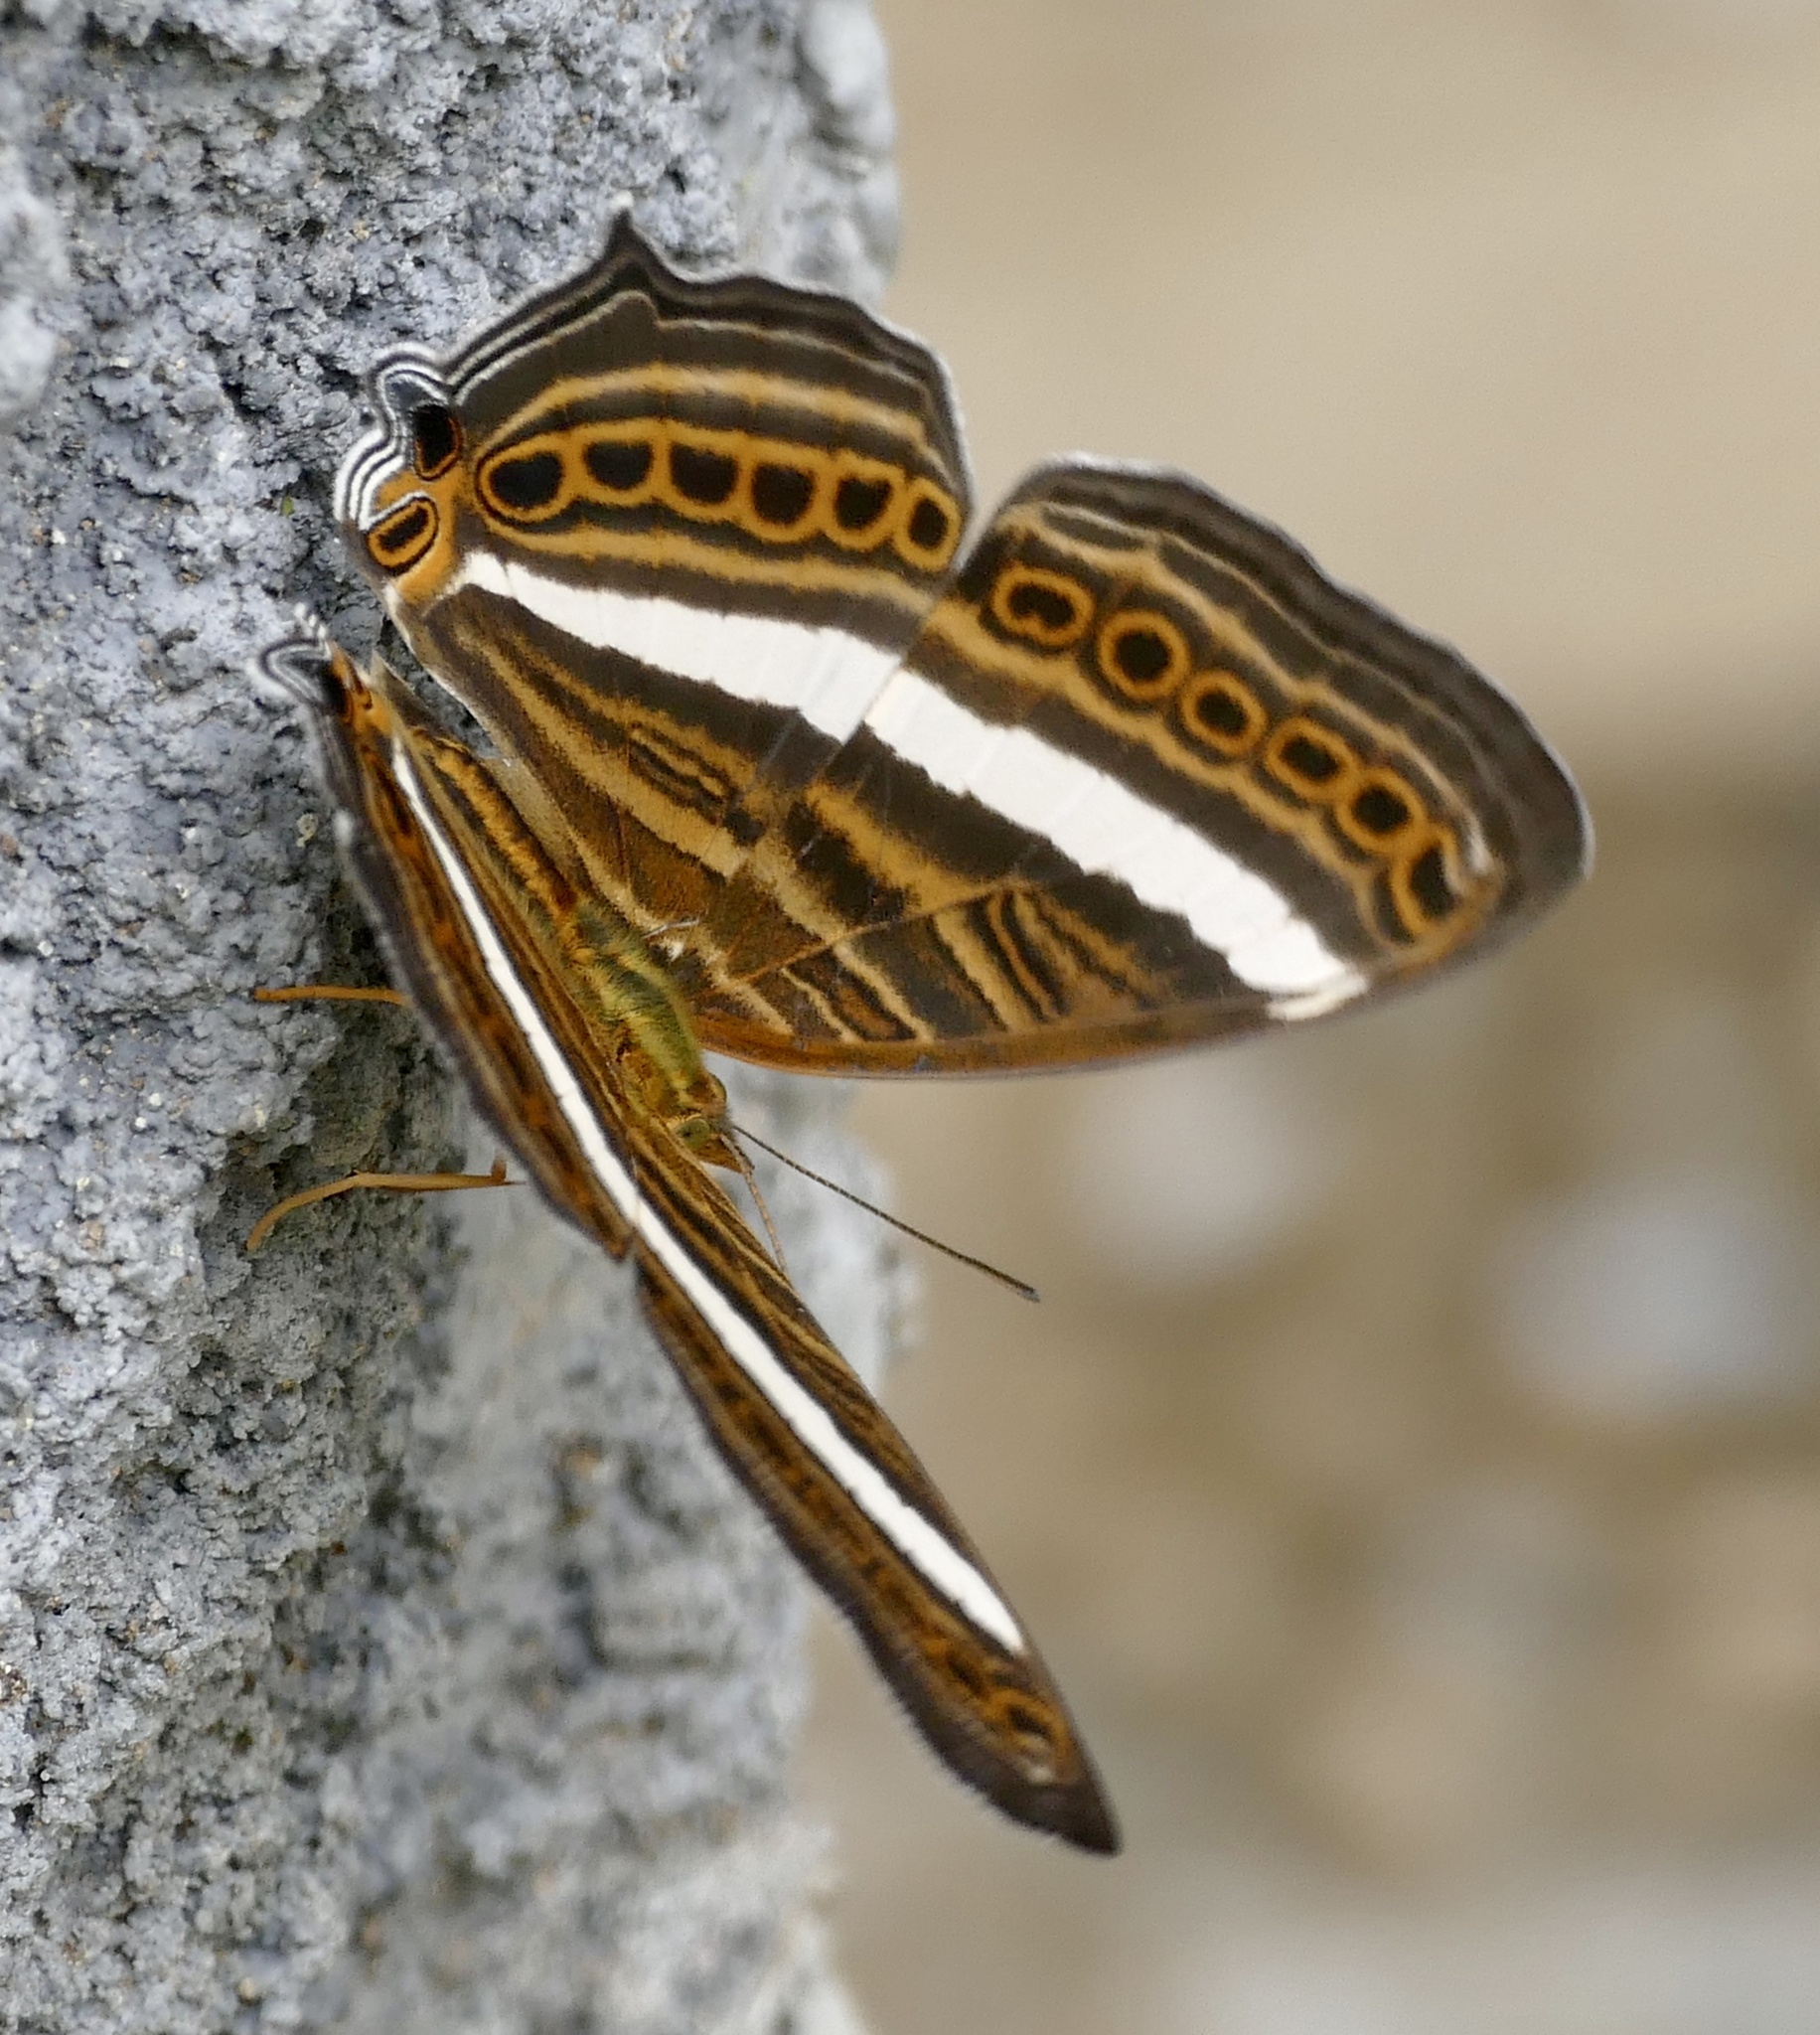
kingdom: Animalia
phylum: Arthropoda
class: Insecta
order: Lepidoptera
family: Nymphalidae
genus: Cyrestis
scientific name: Cyrestis strigata
